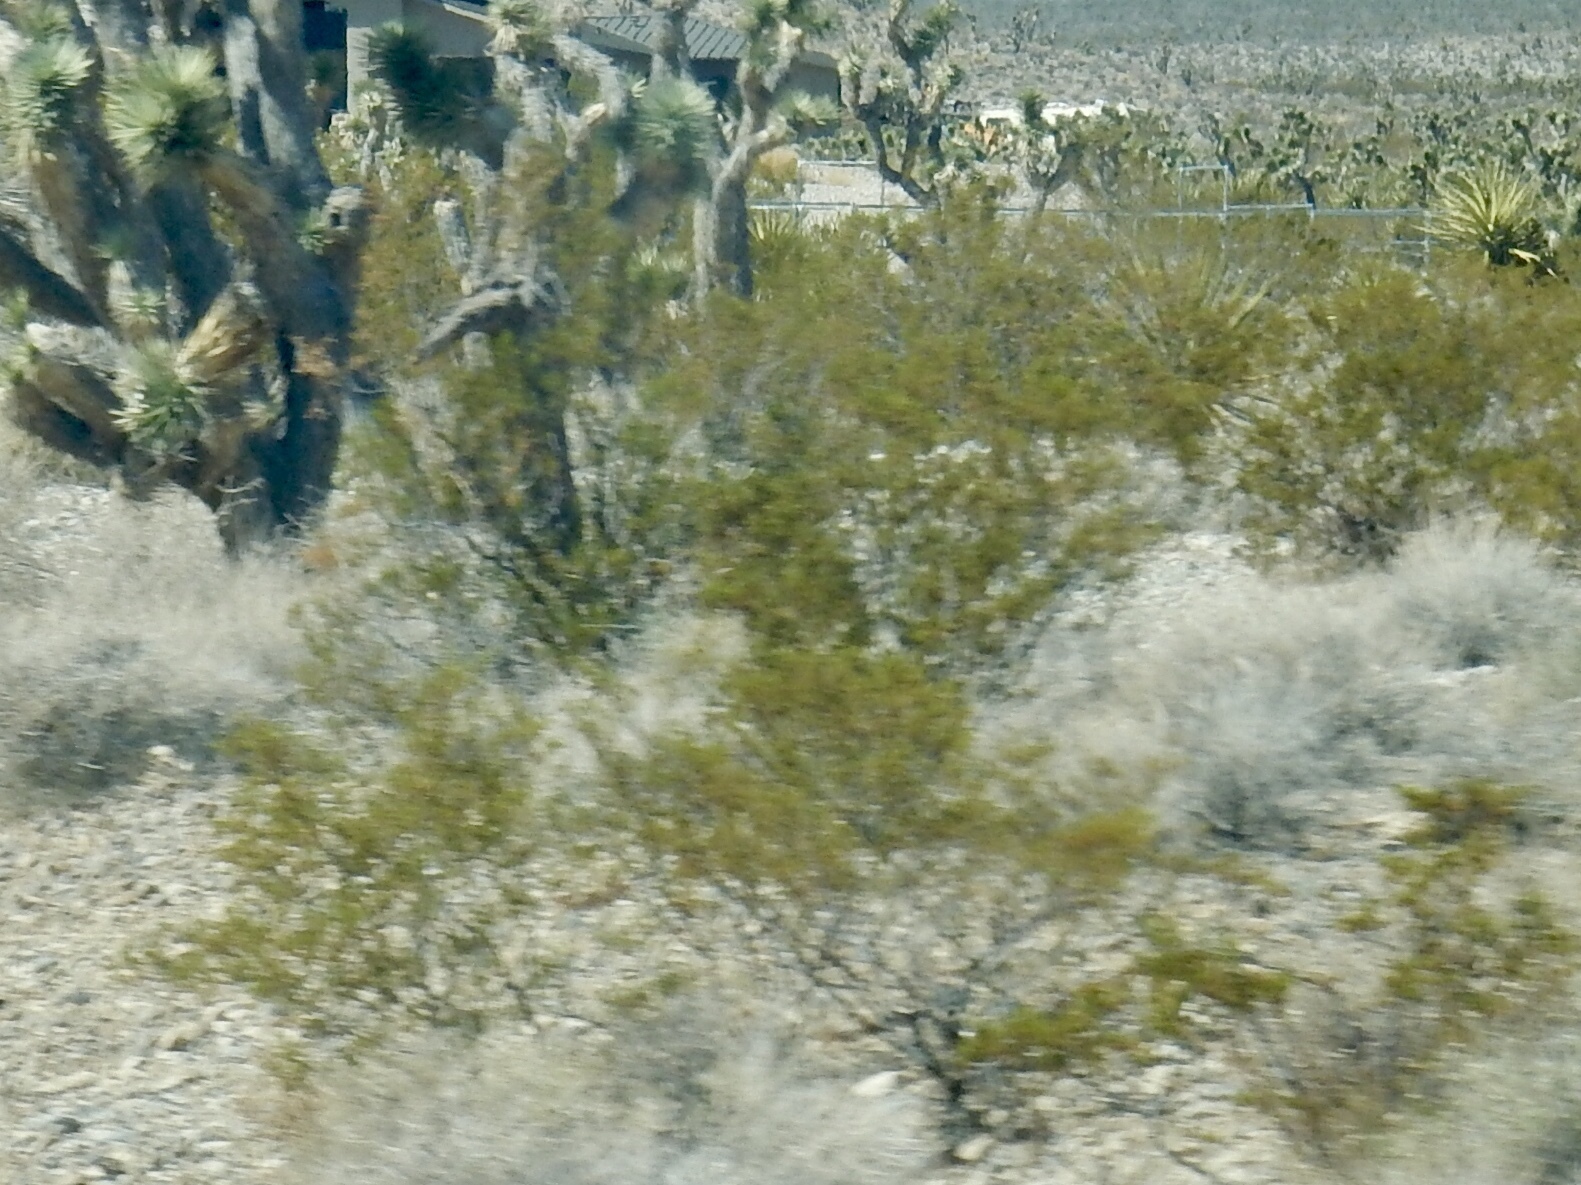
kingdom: Plantae
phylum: Tracheophyta
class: Magnoliopsida
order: Zygophyllales
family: Zygophyllaceae
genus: Larrea
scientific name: Larrea tridentata
